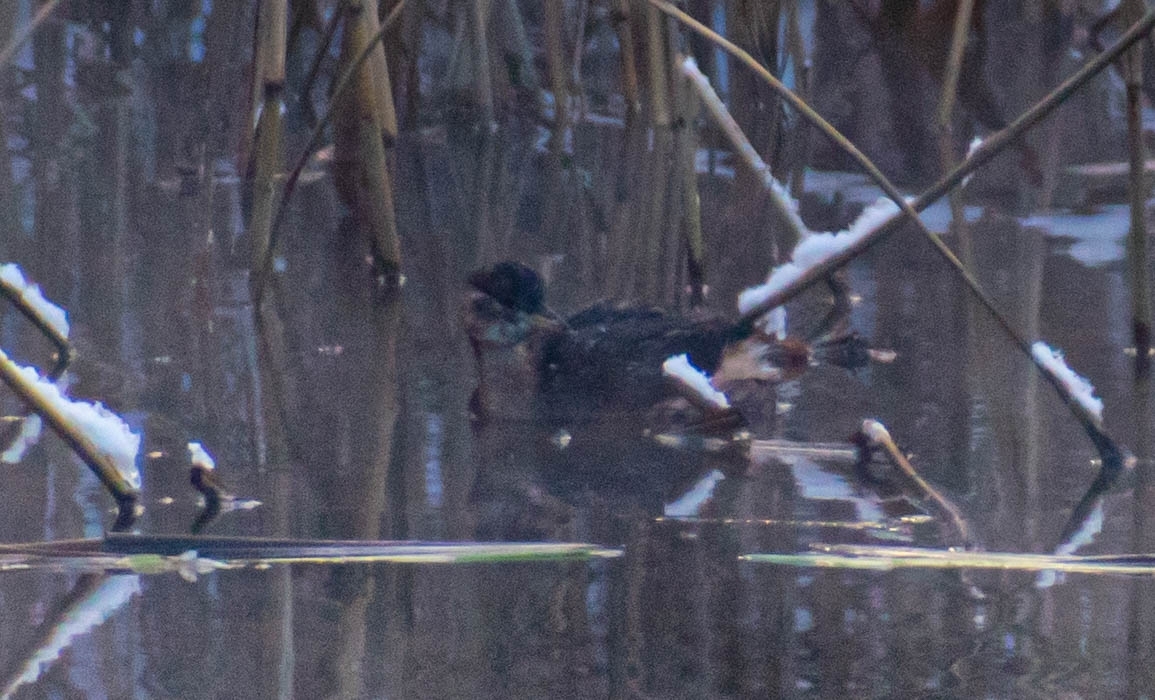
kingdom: Animalia
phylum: Chordata
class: Aves
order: Podicipediformes
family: Podicipedidae
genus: Tachybaptus
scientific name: Tachybaptus ruficollis
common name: Little grebe
